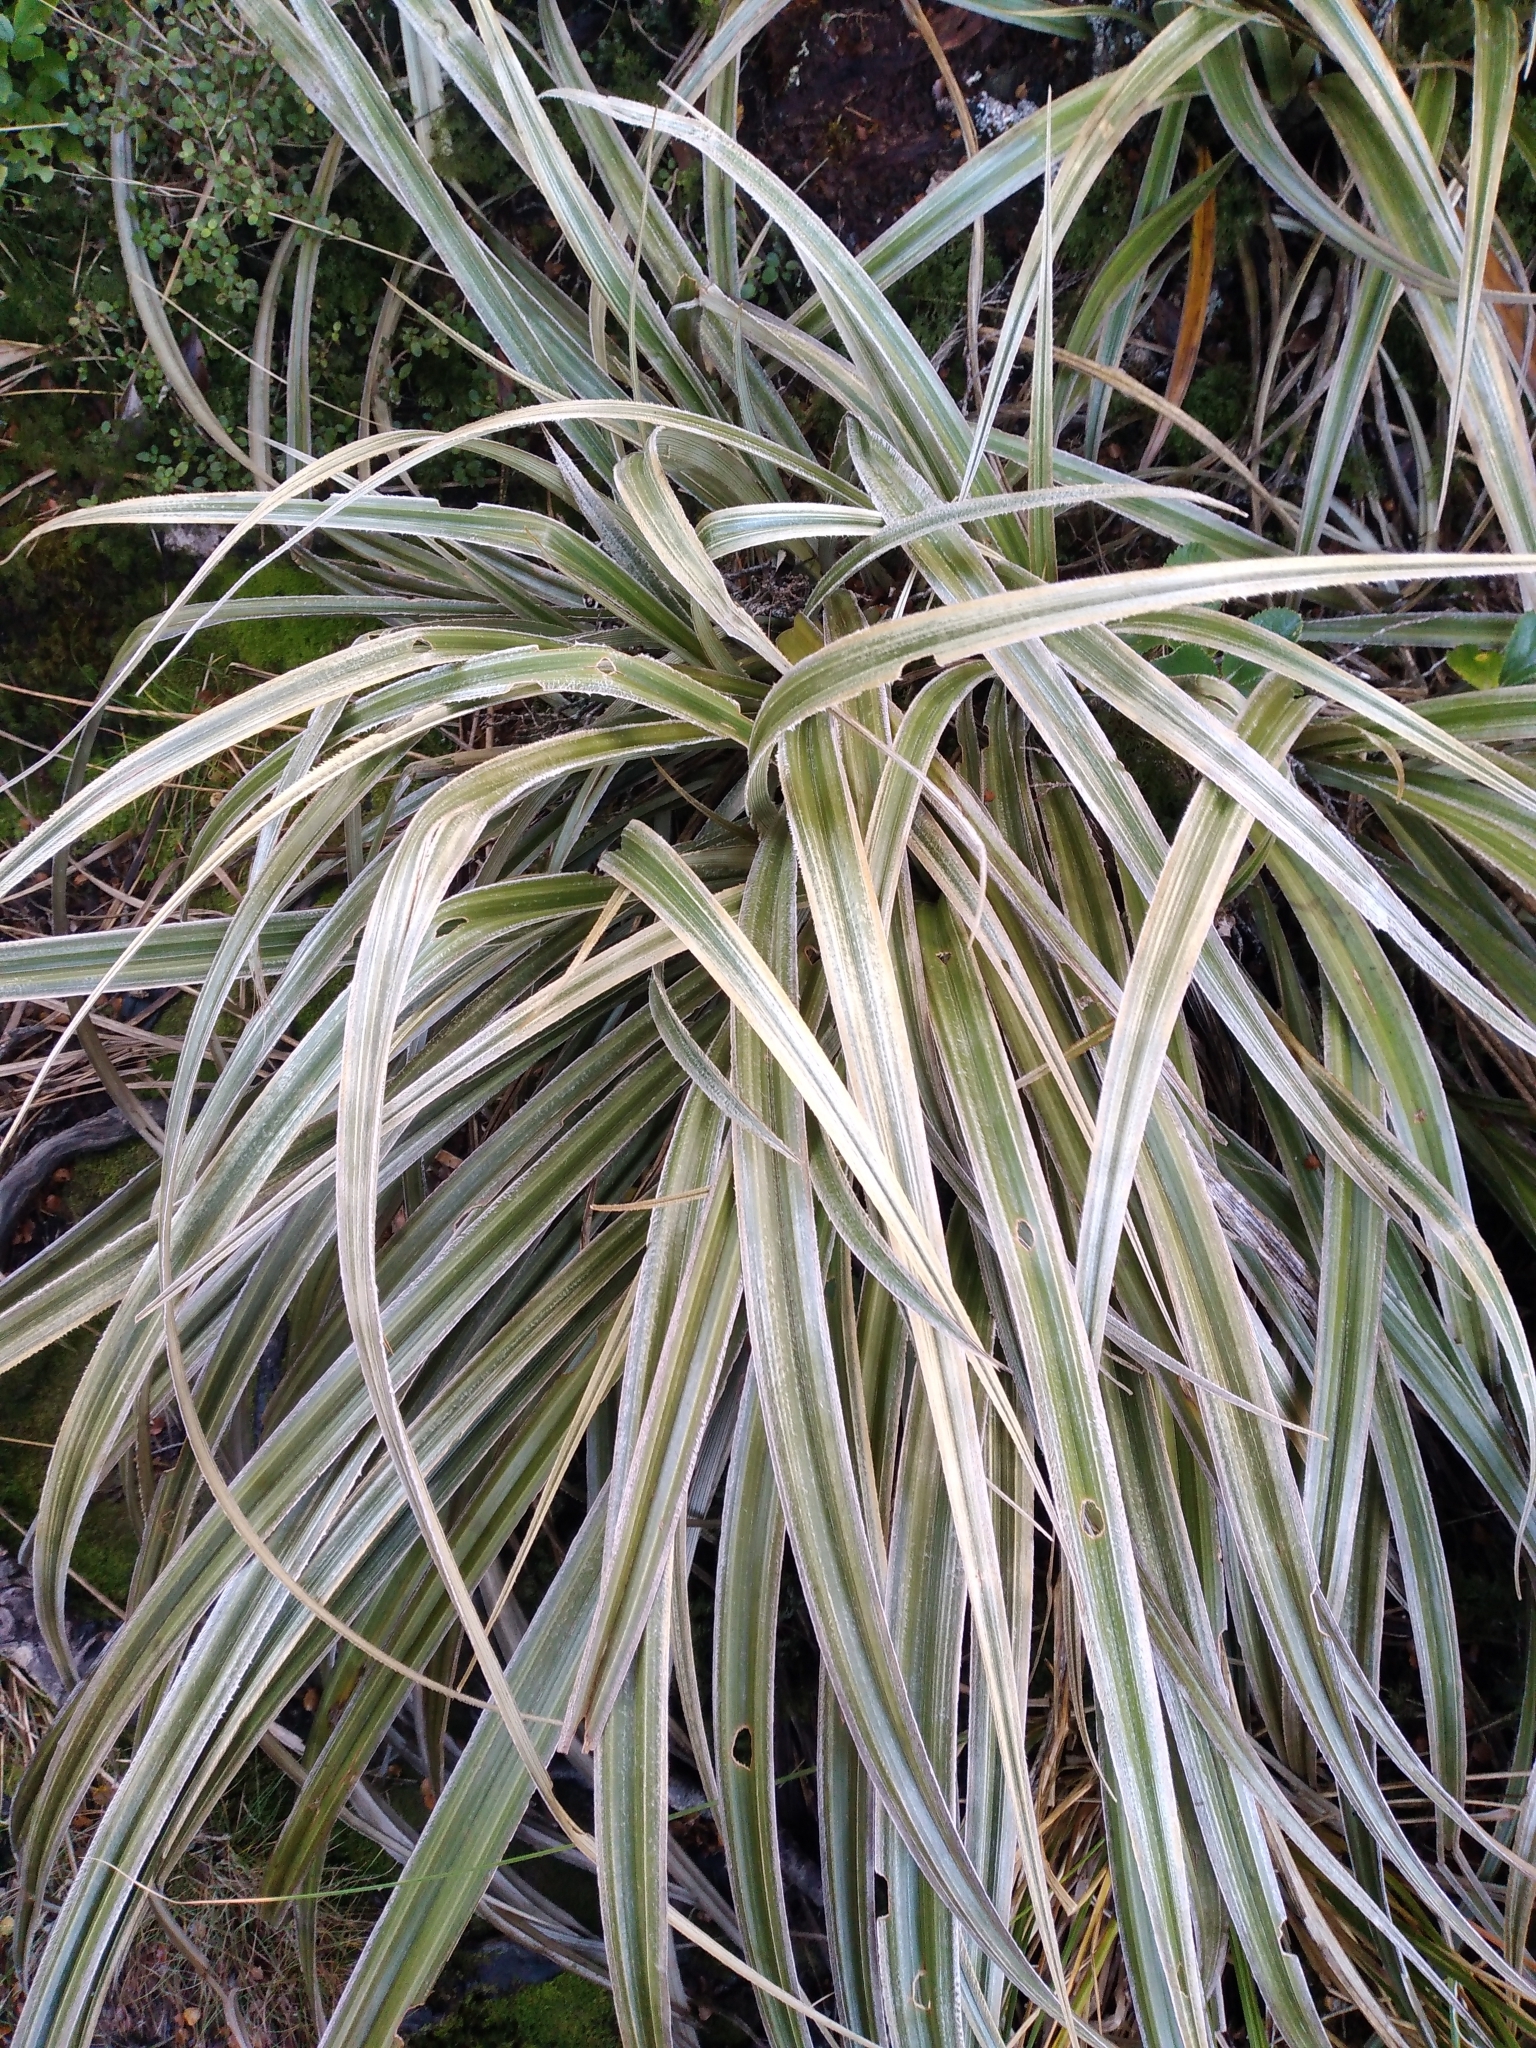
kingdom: Plantae
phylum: Tracheophyta
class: Liliopsida
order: Asparagales
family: Asteliaceae
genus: Astelia
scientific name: Astelia nervosa
